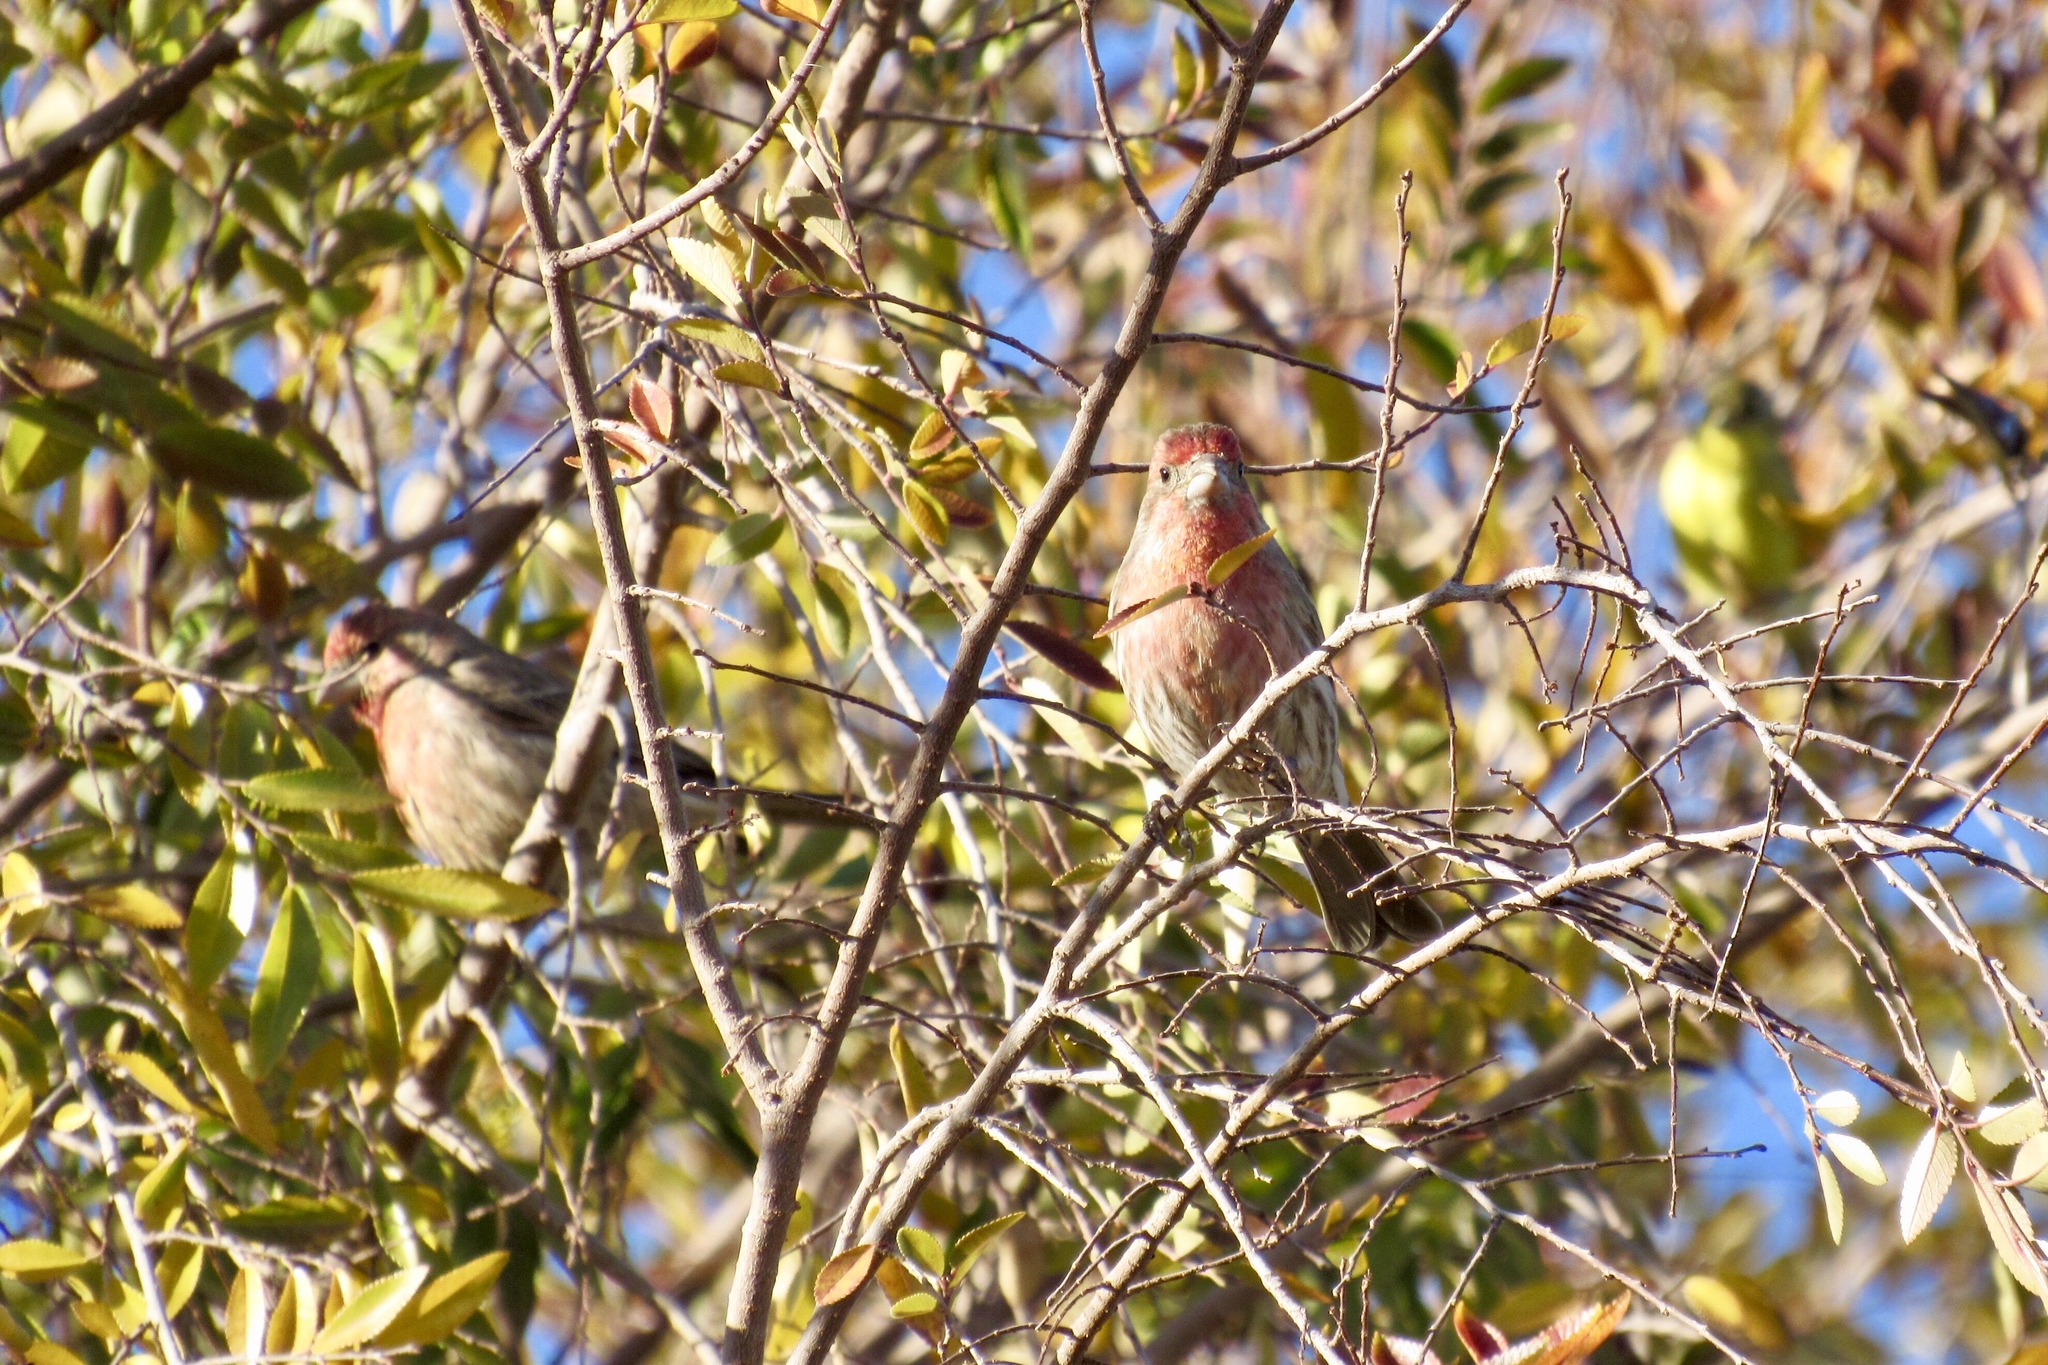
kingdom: Animalia
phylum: Chordata
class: Aves
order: Passeriformes
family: Fringillidae
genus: Haemorhous
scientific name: Haemorhous mexicanus
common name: House finch
